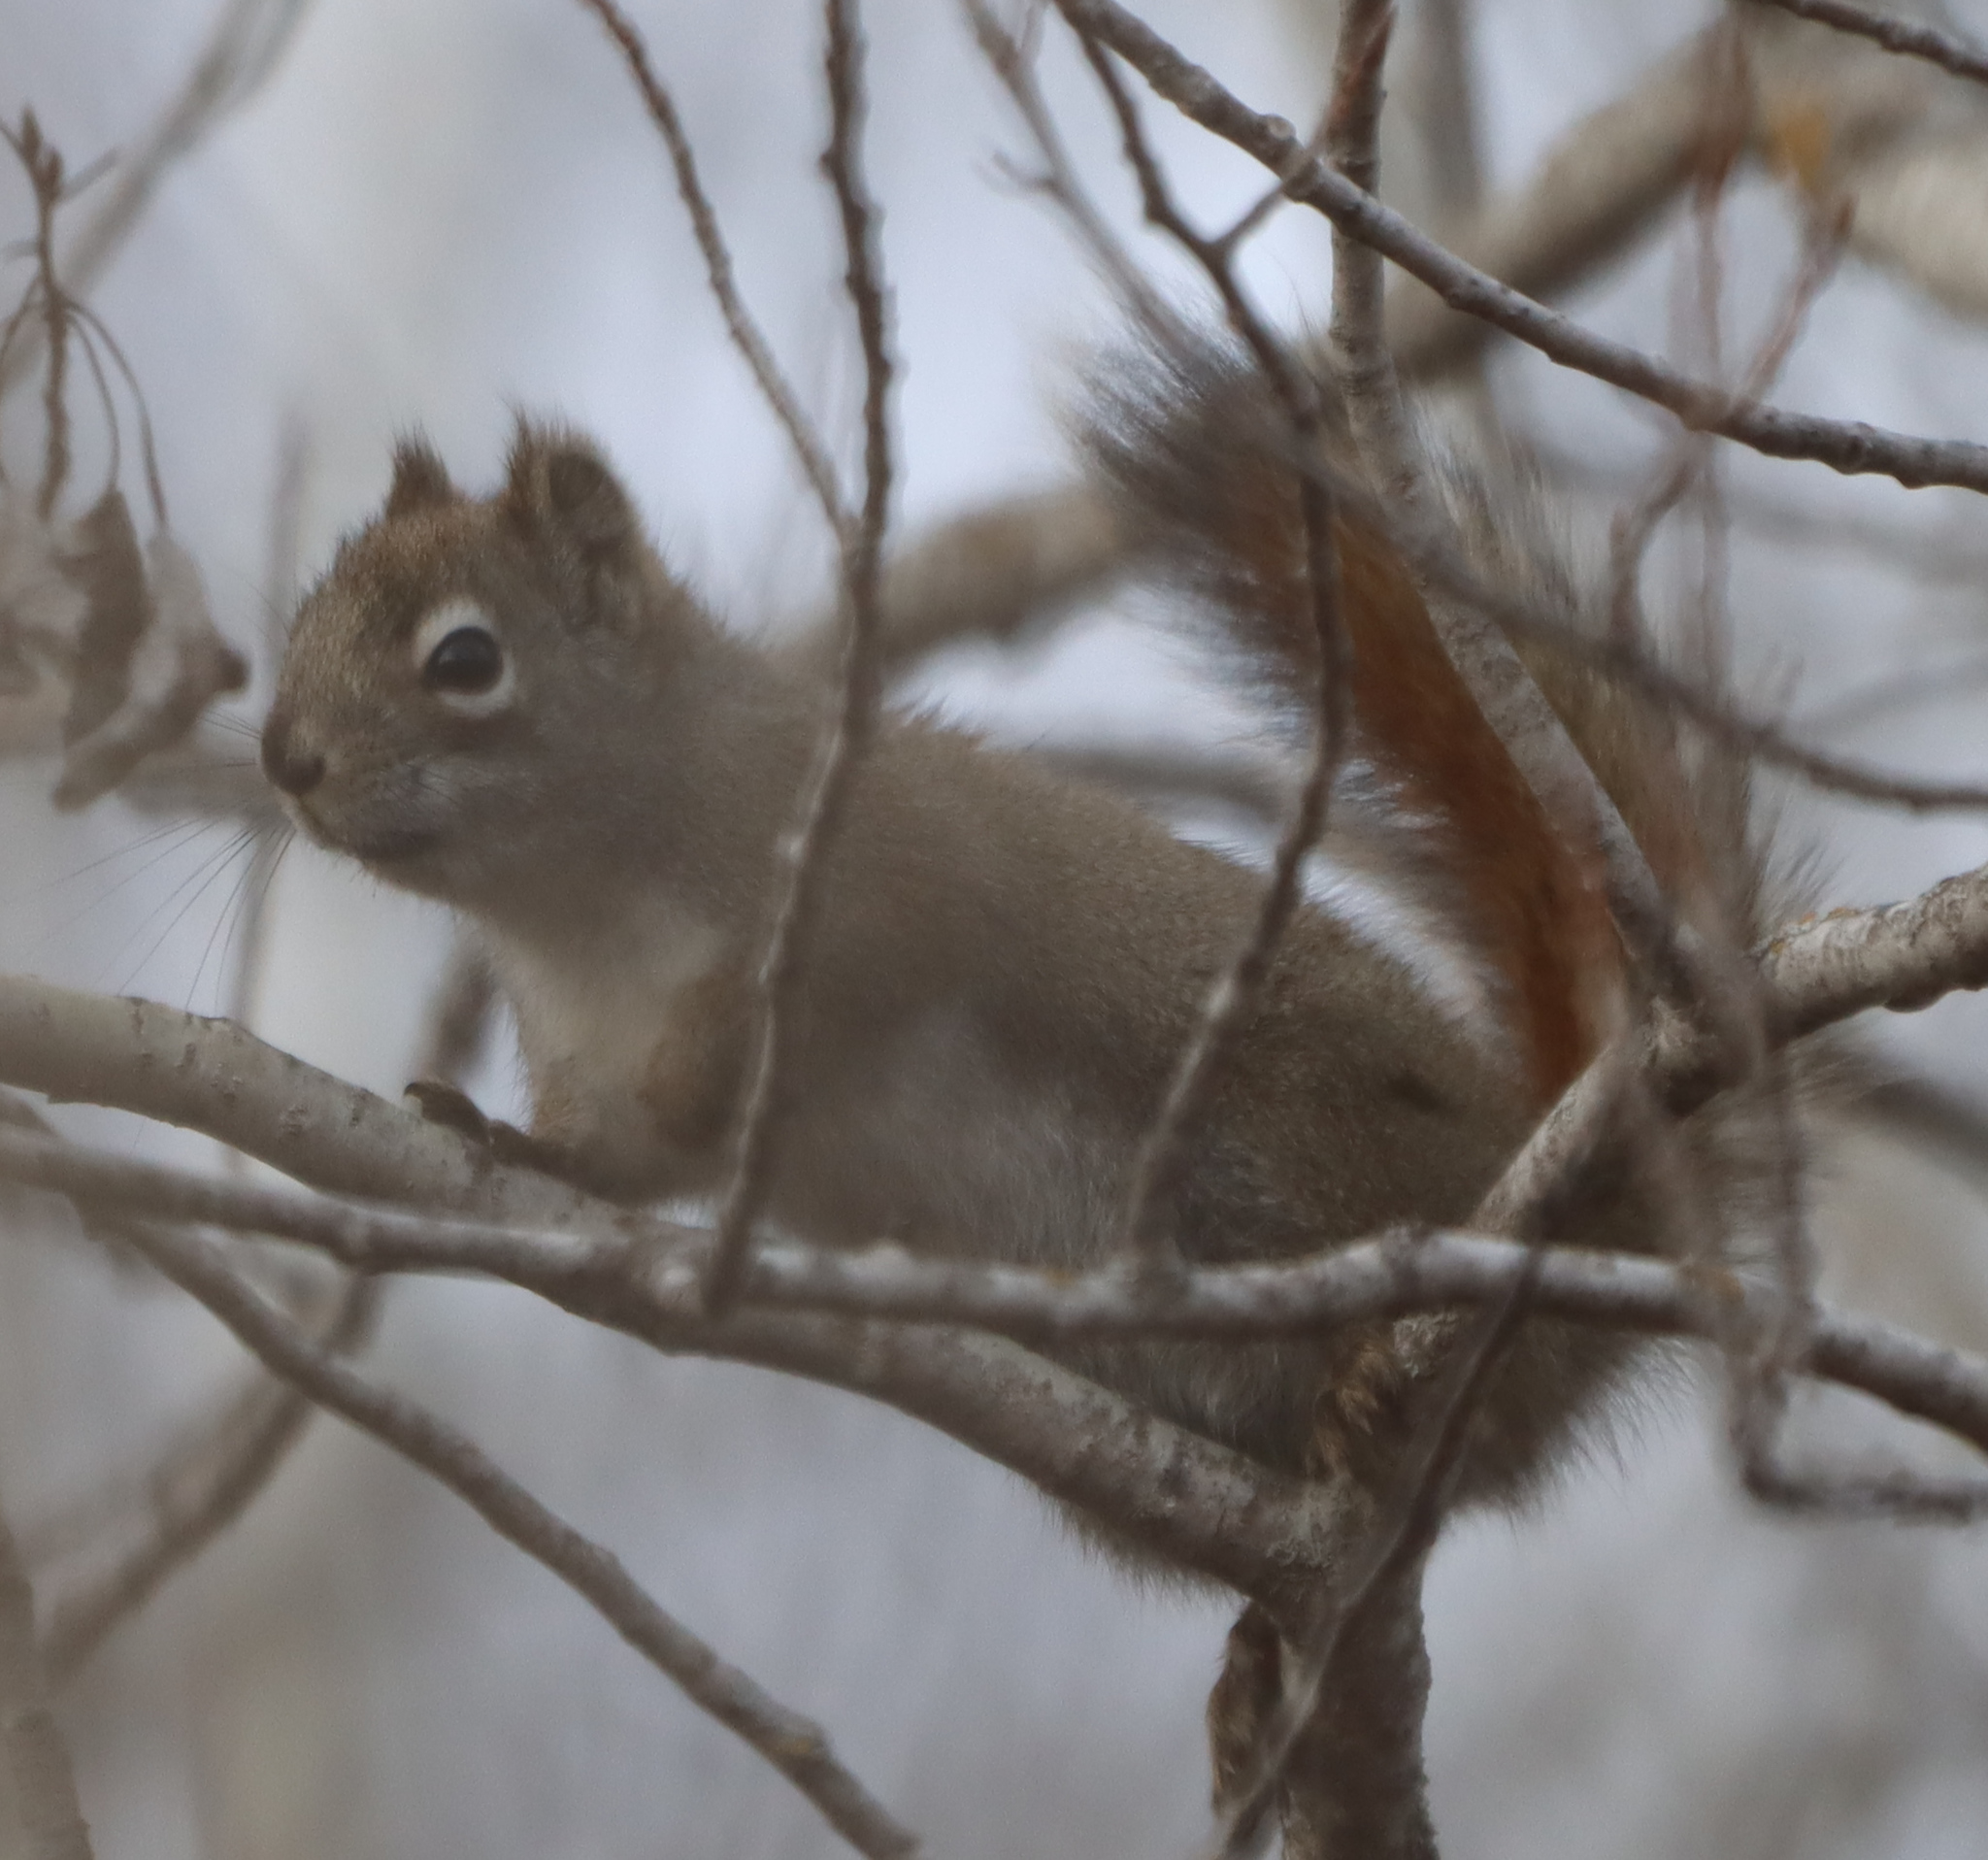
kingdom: Animalia
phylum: Chordata
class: Mammalia
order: Rodentia
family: Sciuridae
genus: Tamiasciurus
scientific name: Tamiasciurus hudsonicus
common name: Red squirrel
